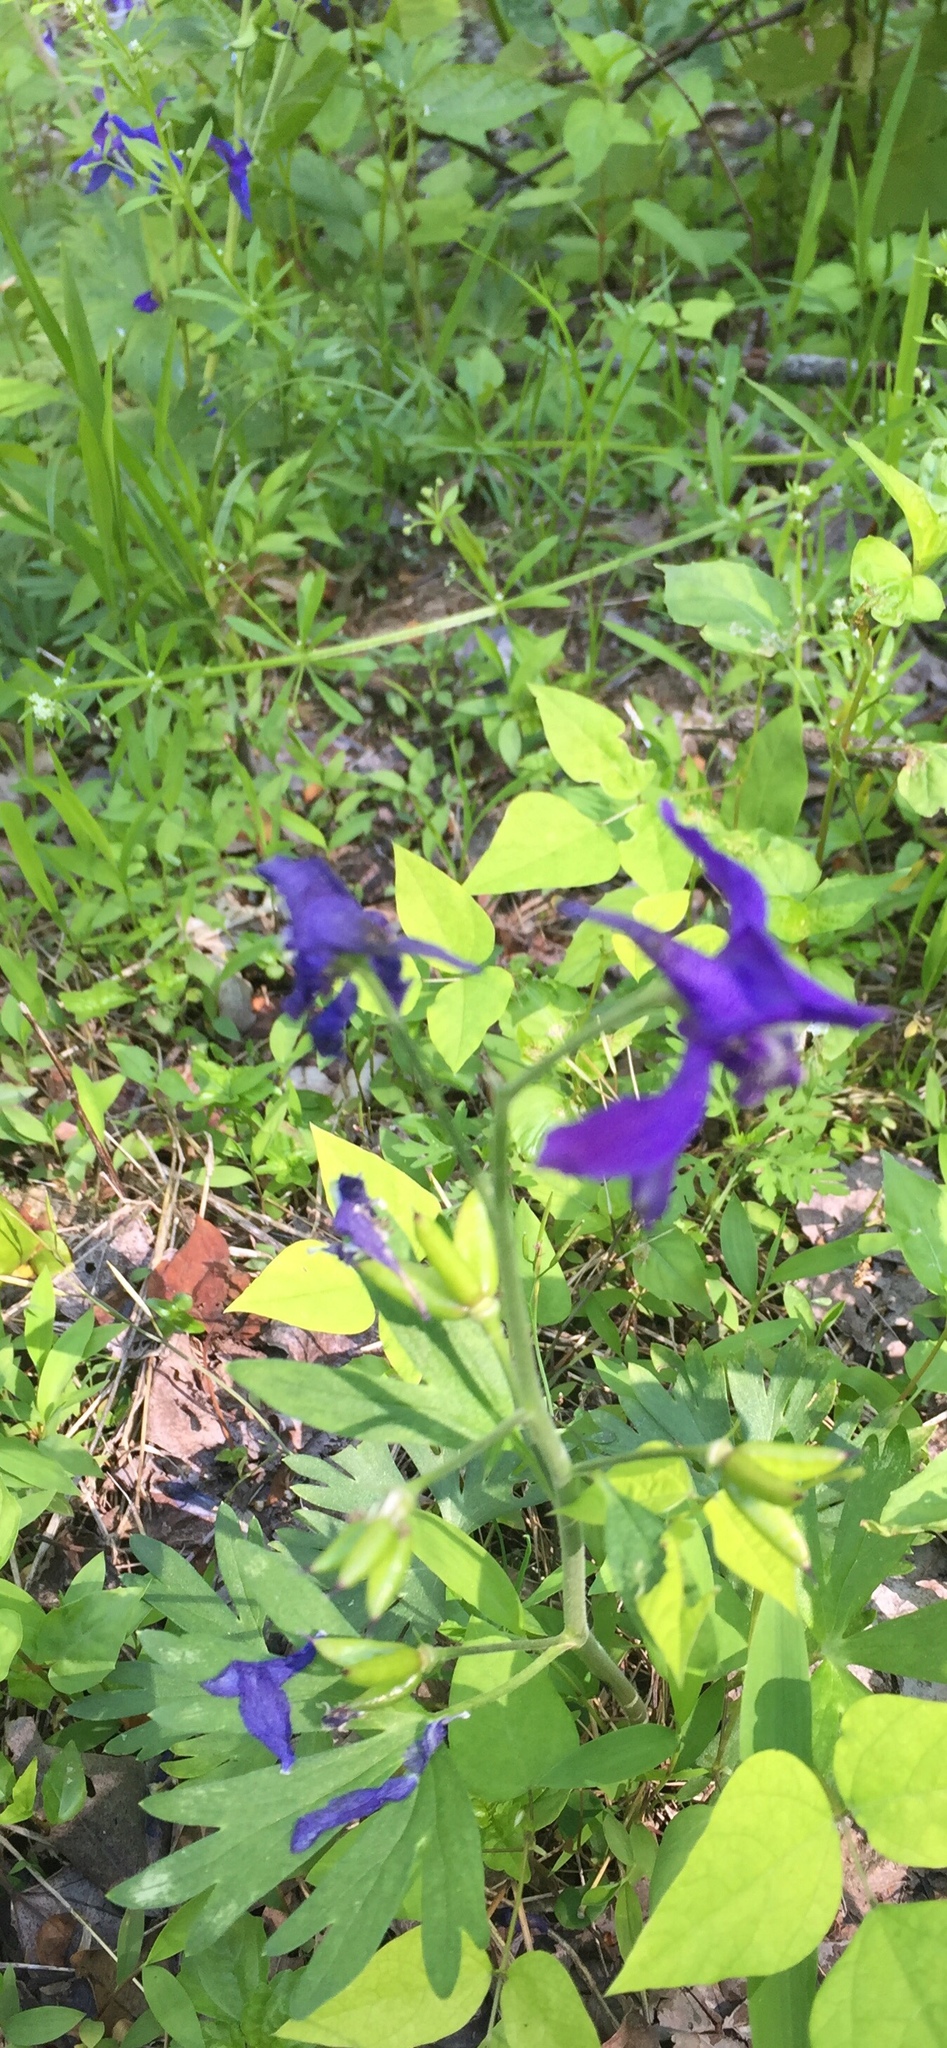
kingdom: Plantae
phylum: Tracheophyta
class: Magnoliopsida
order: Ranunculales
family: Ranunculaceae
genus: Delphinium
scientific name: Delphinium tricorne
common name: Dwarf larkspur
